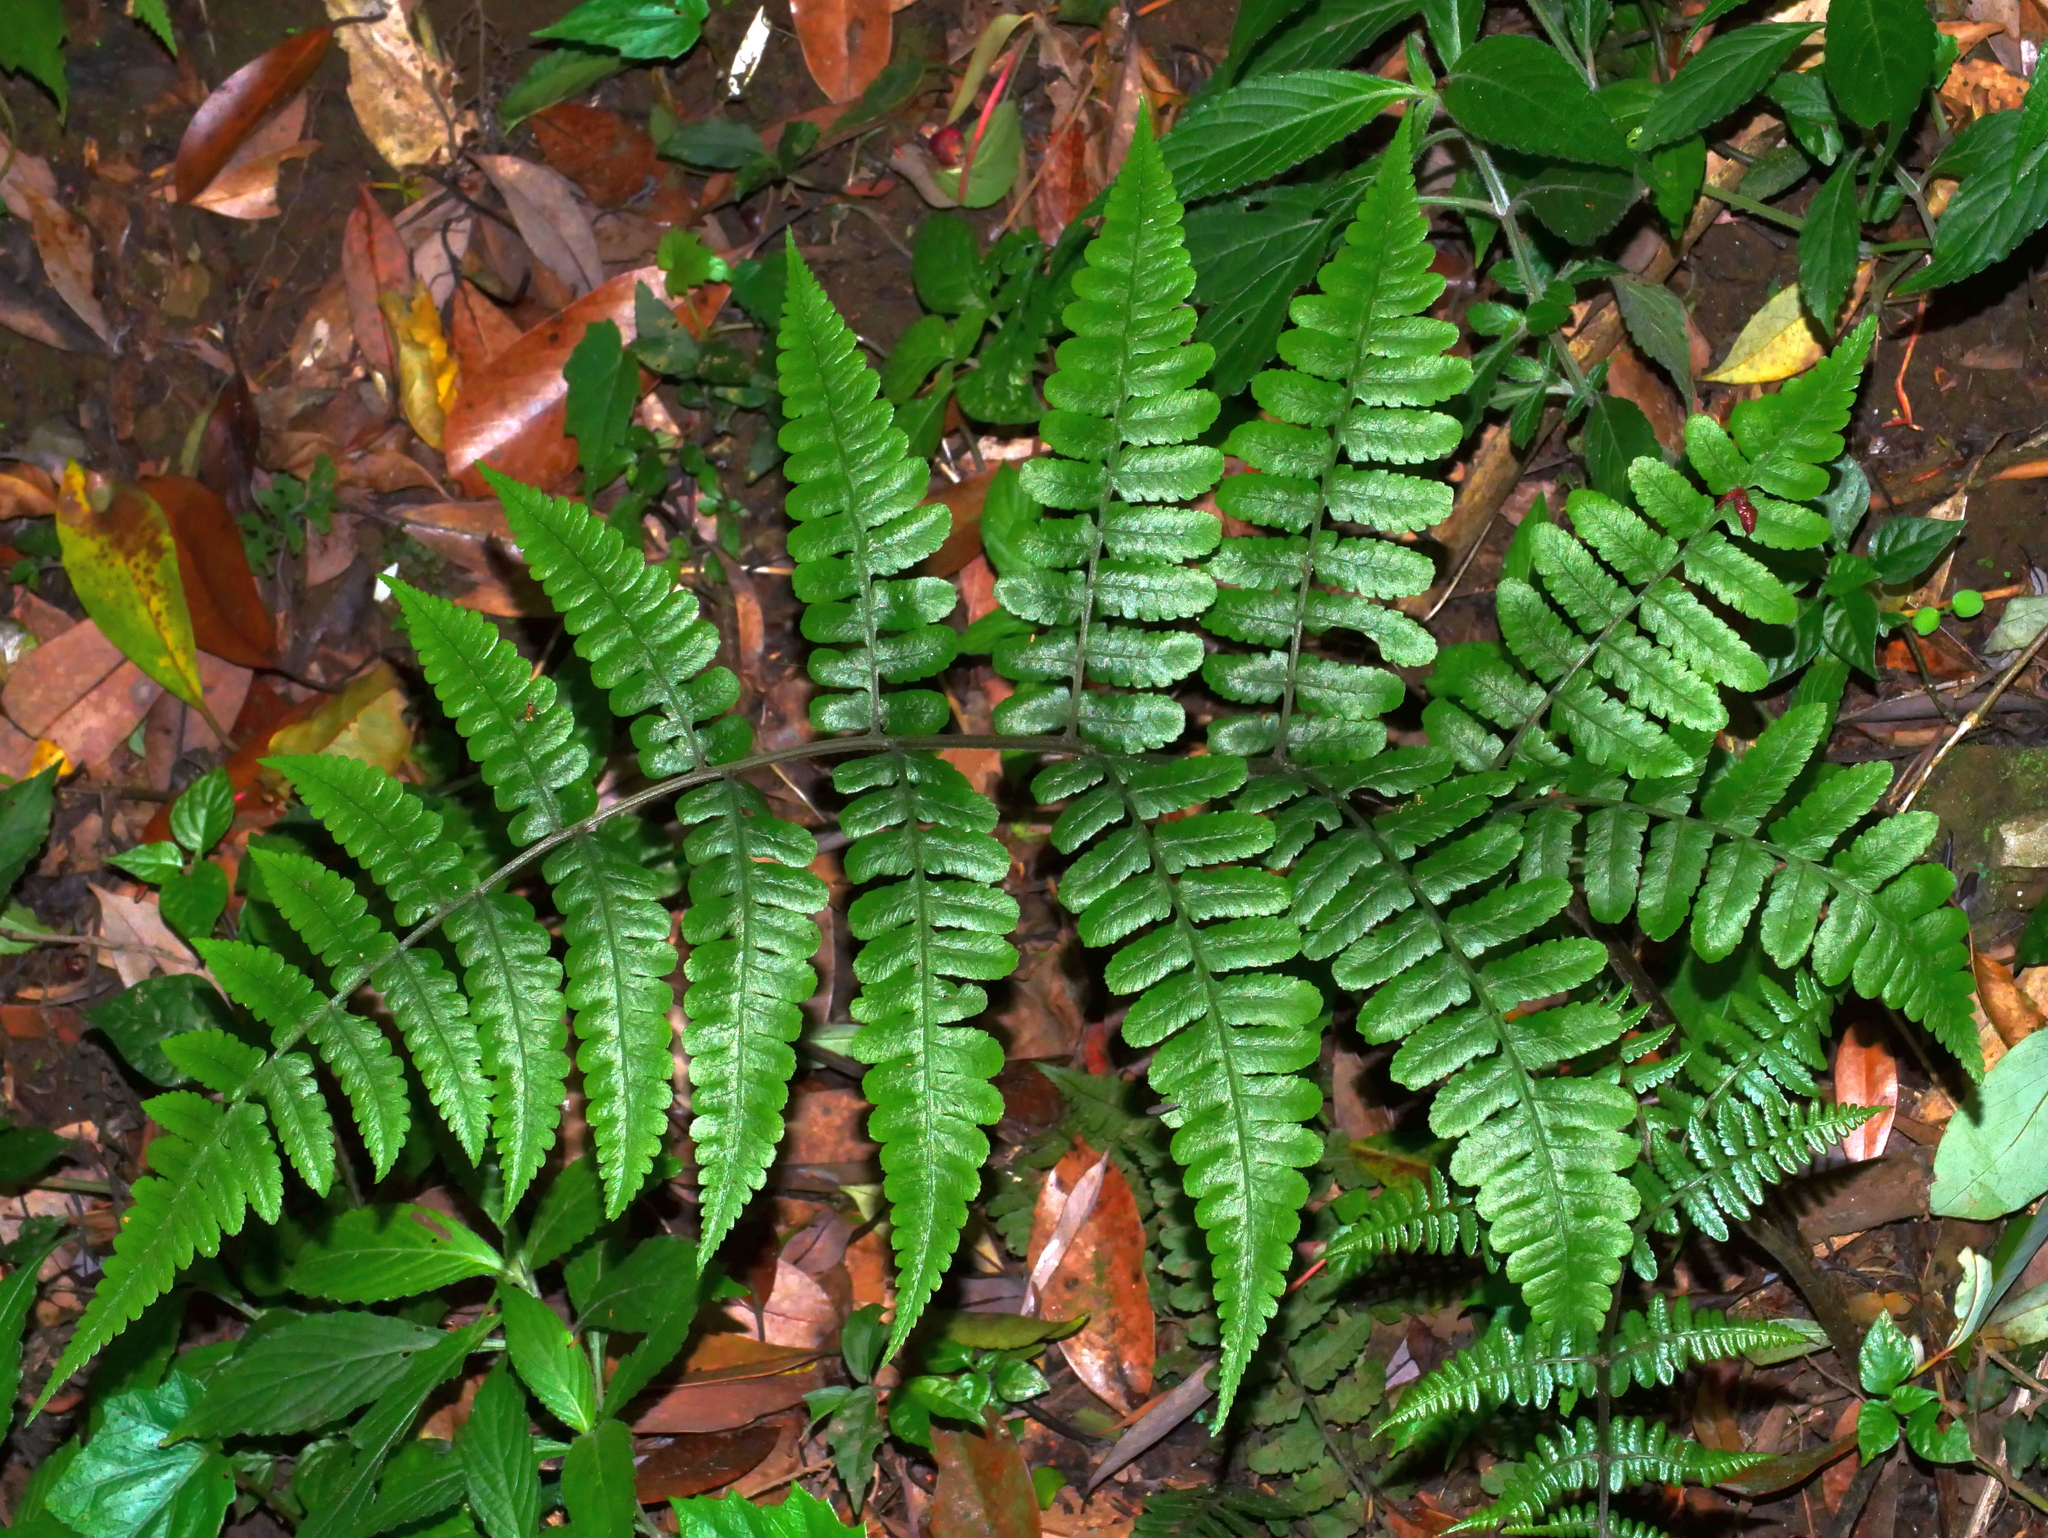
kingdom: Plantae
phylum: Tracheophyta
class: Polypodiopsida
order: Polypodiales
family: Athyriaceae
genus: Cornopteris
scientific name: Cornopteris opaca
